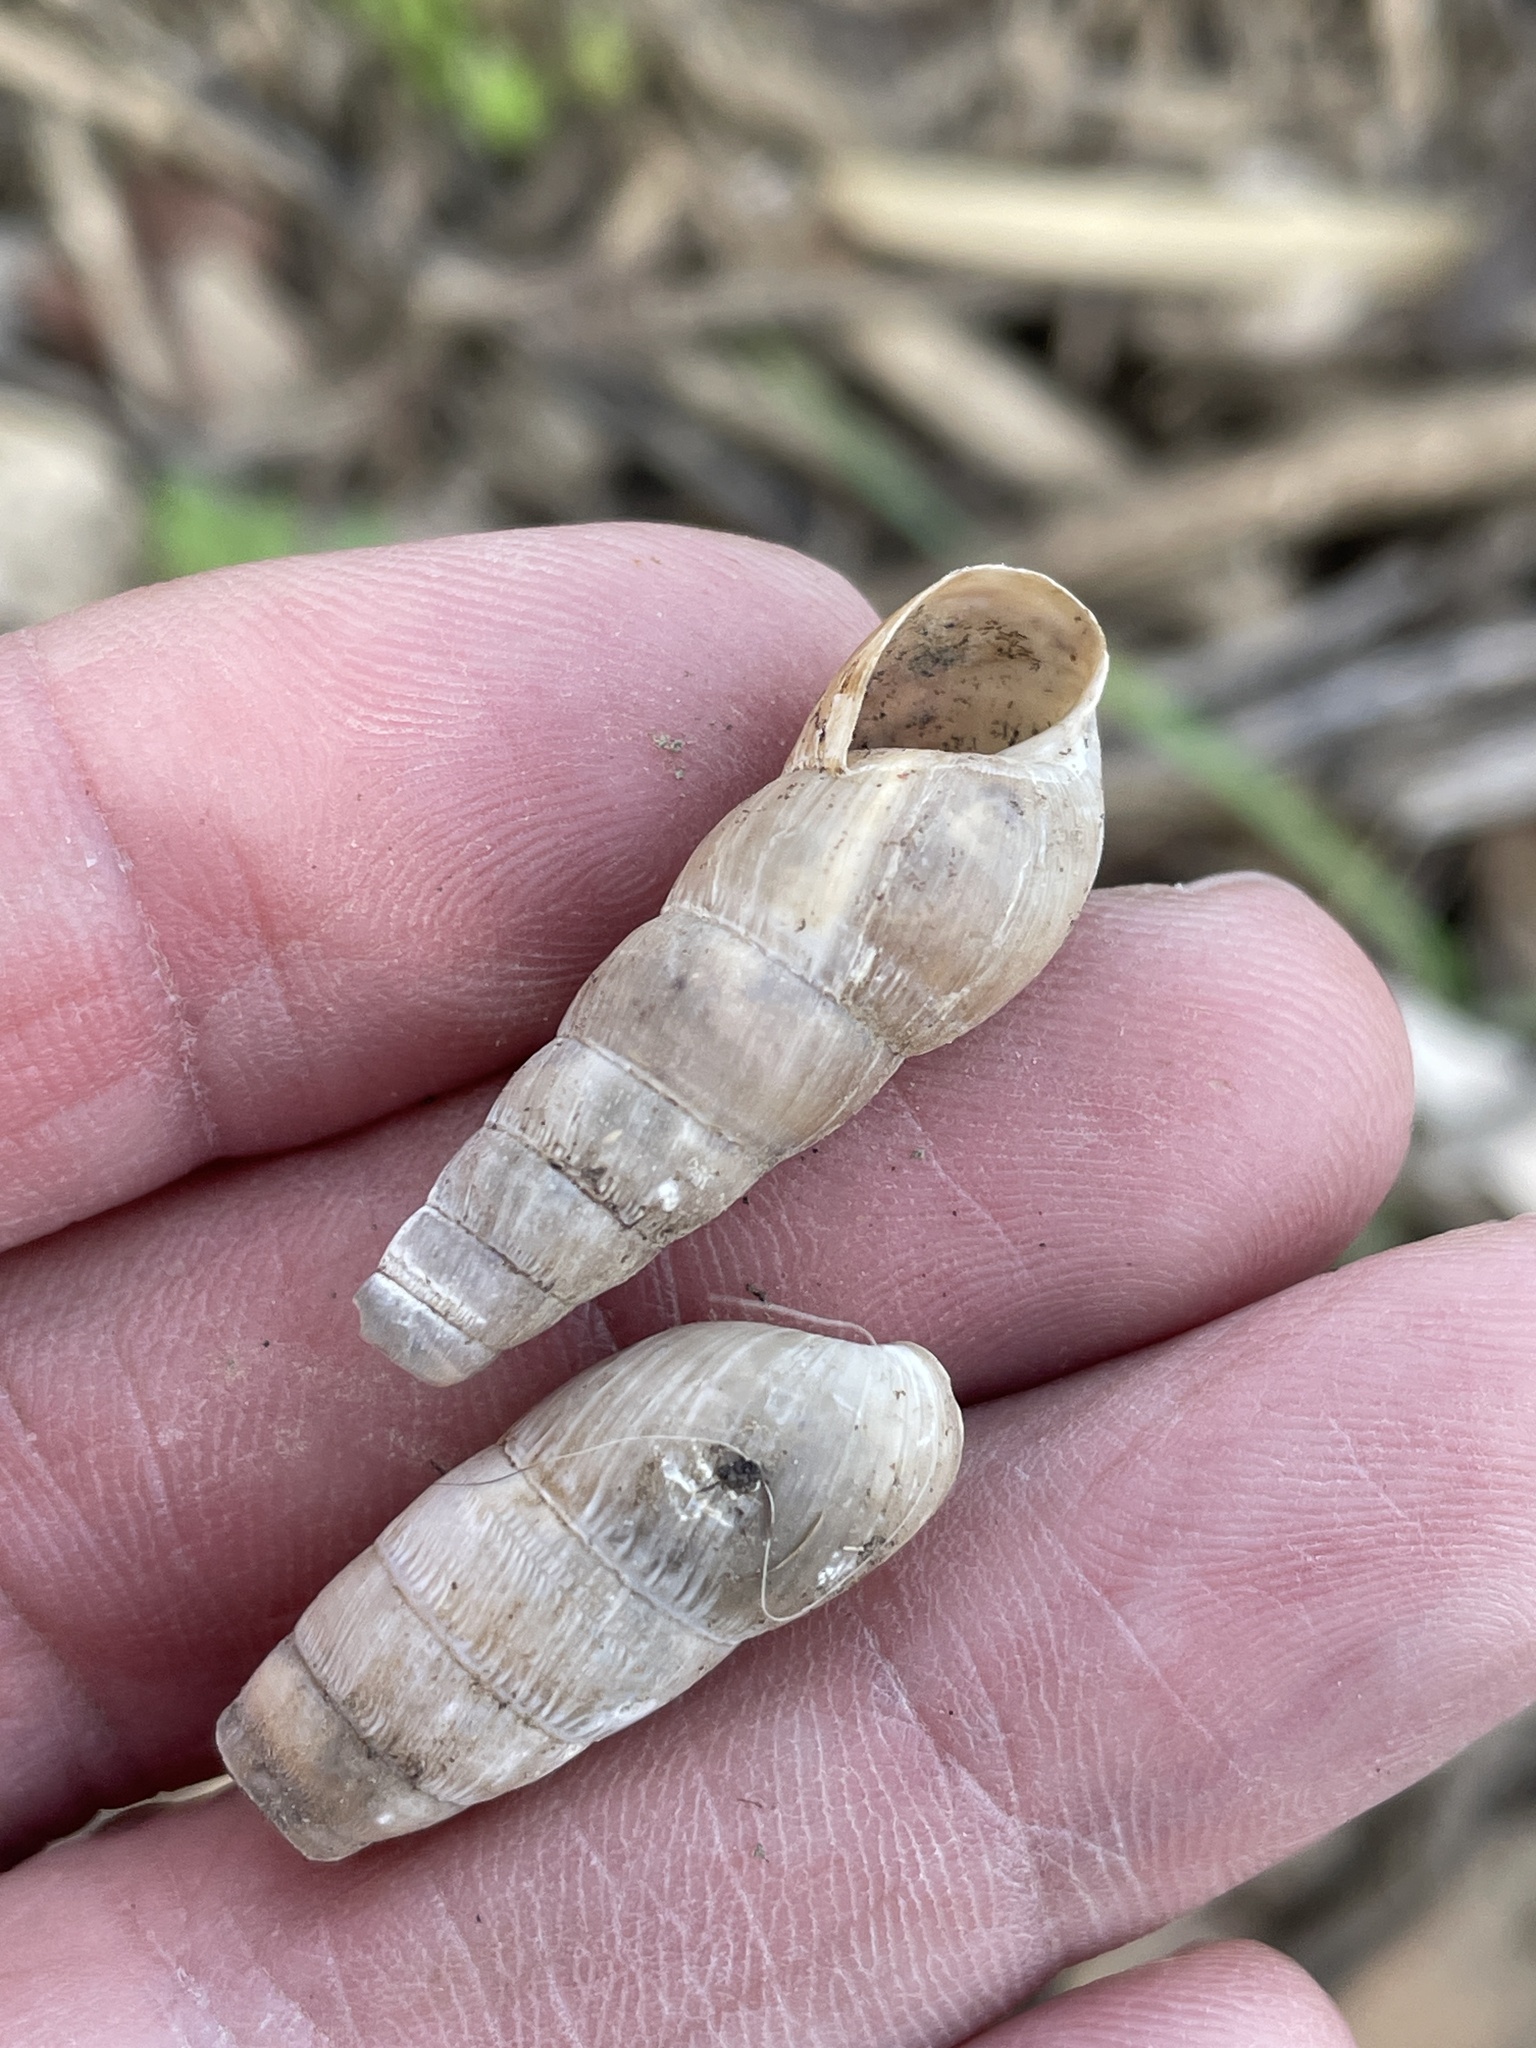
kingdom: Animalia
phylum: Mollusca
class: Gastropoda
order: Stylommatophora
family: Achatinidae
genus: Rumina
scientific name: Rumina decollata
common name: Decollate snail
